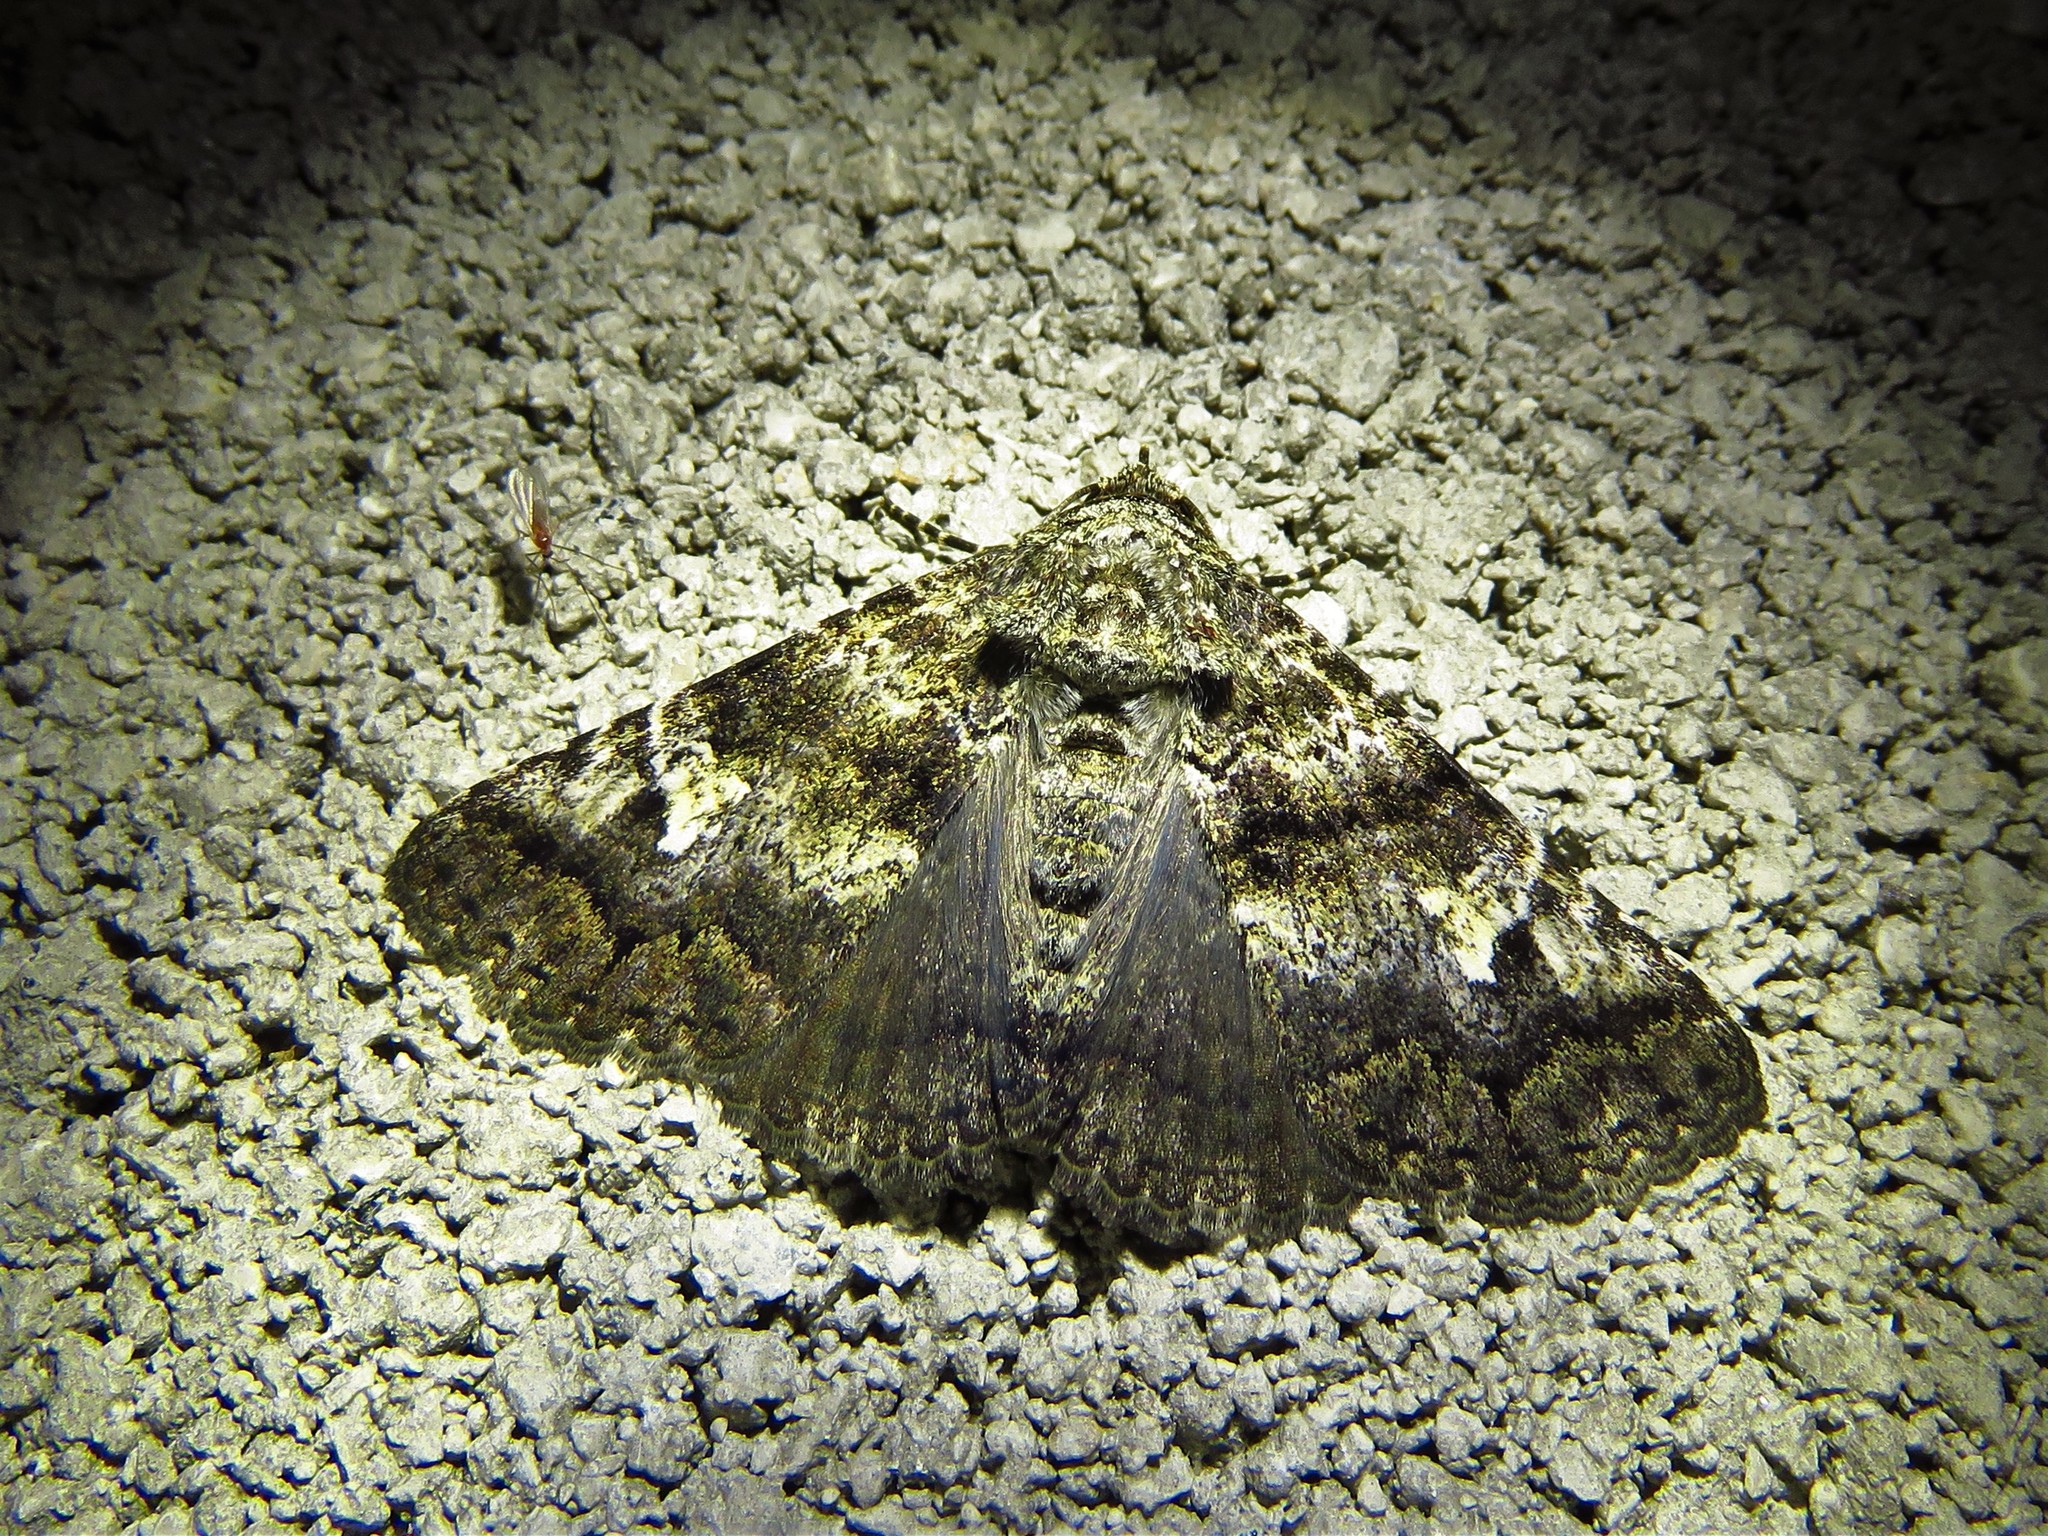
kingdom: Animalia
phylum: Arthropoda
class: Insecta
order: Lepidoptera
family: Erebidae
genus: Metria
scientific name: Metria amella
